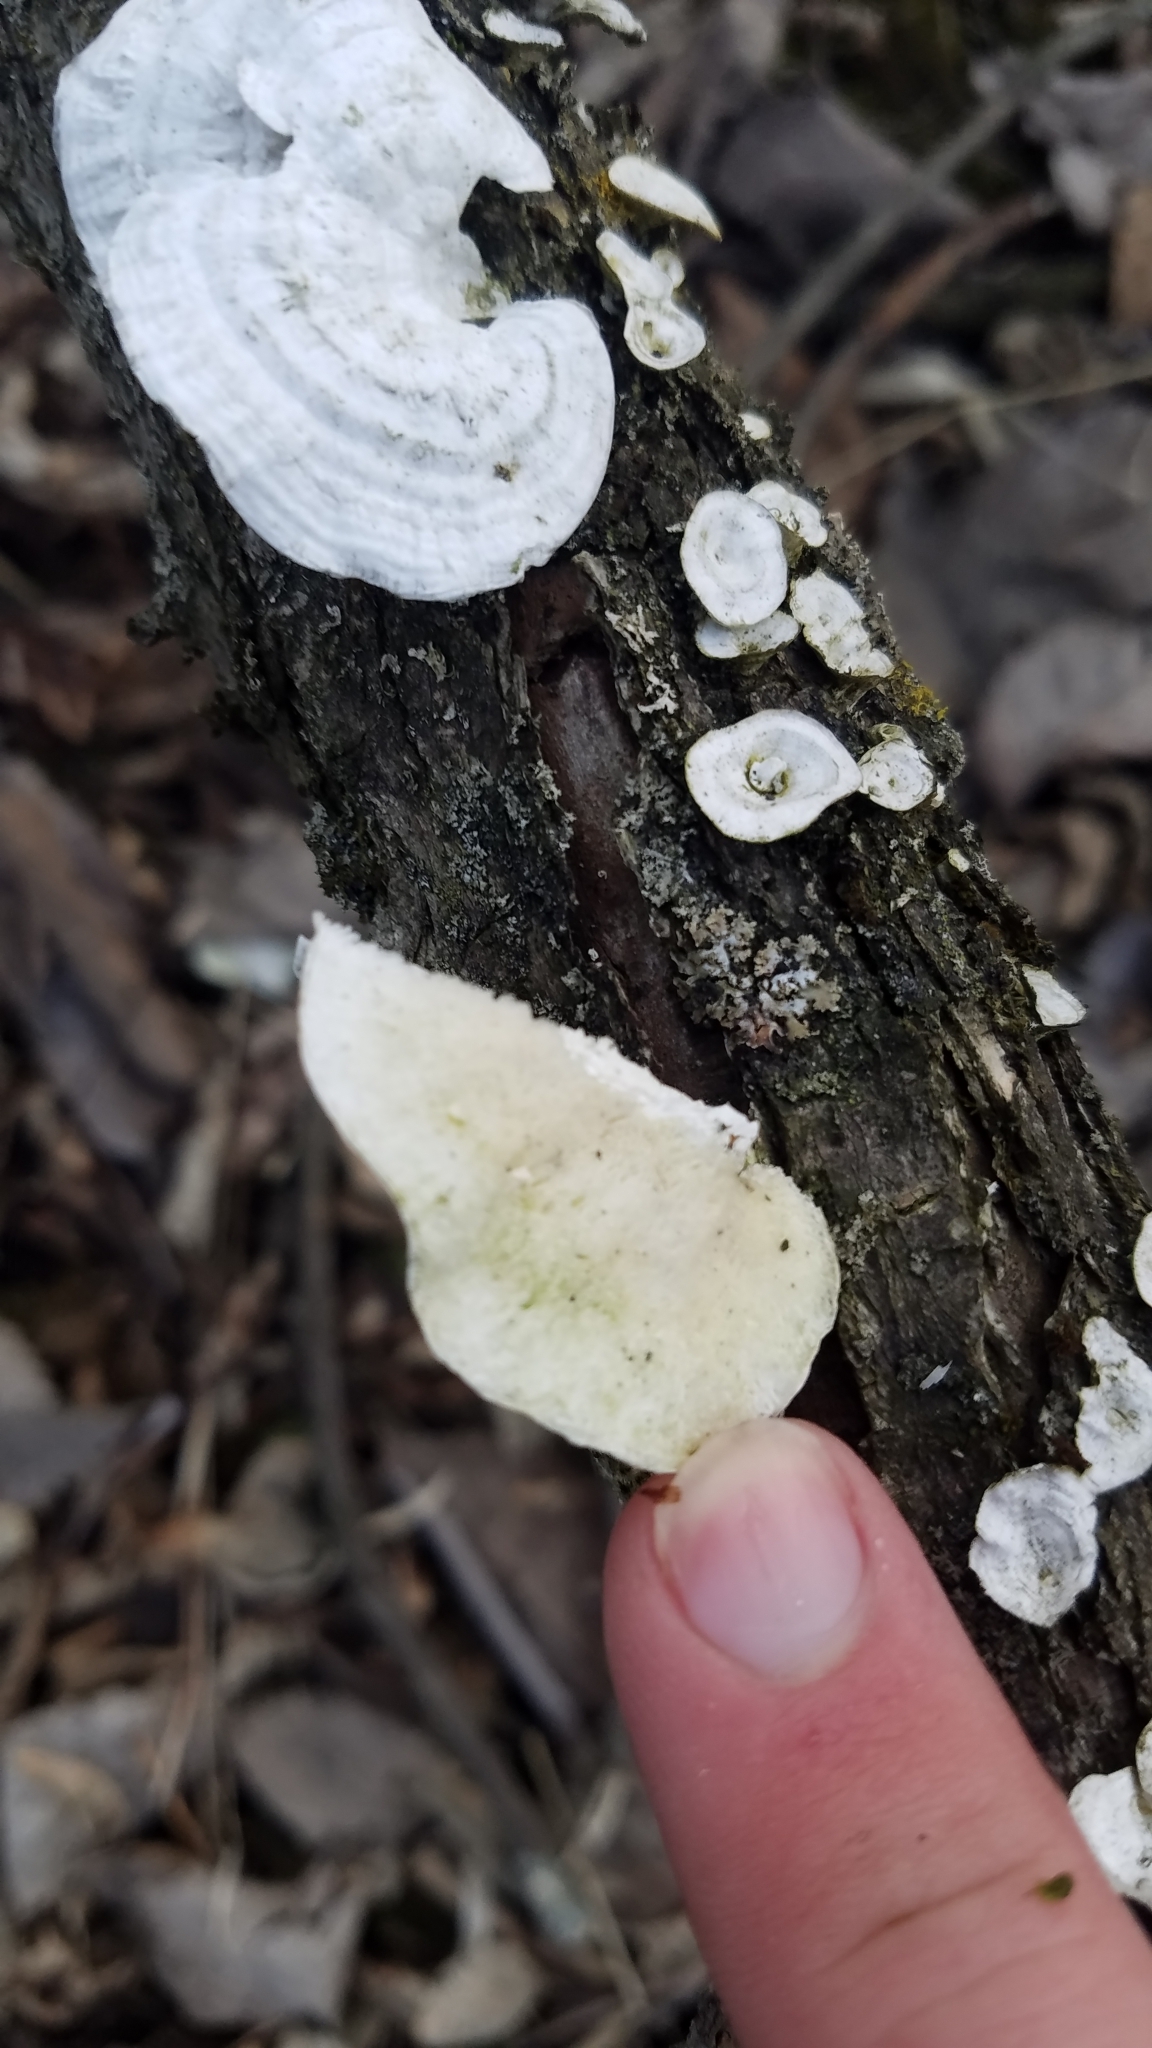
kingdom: Fungi
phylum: Basidiomycota
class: Agaricomycetes
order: Polyporales
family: Polyporaceae
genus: Poronidulus
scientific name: Poronidulus conchifer
